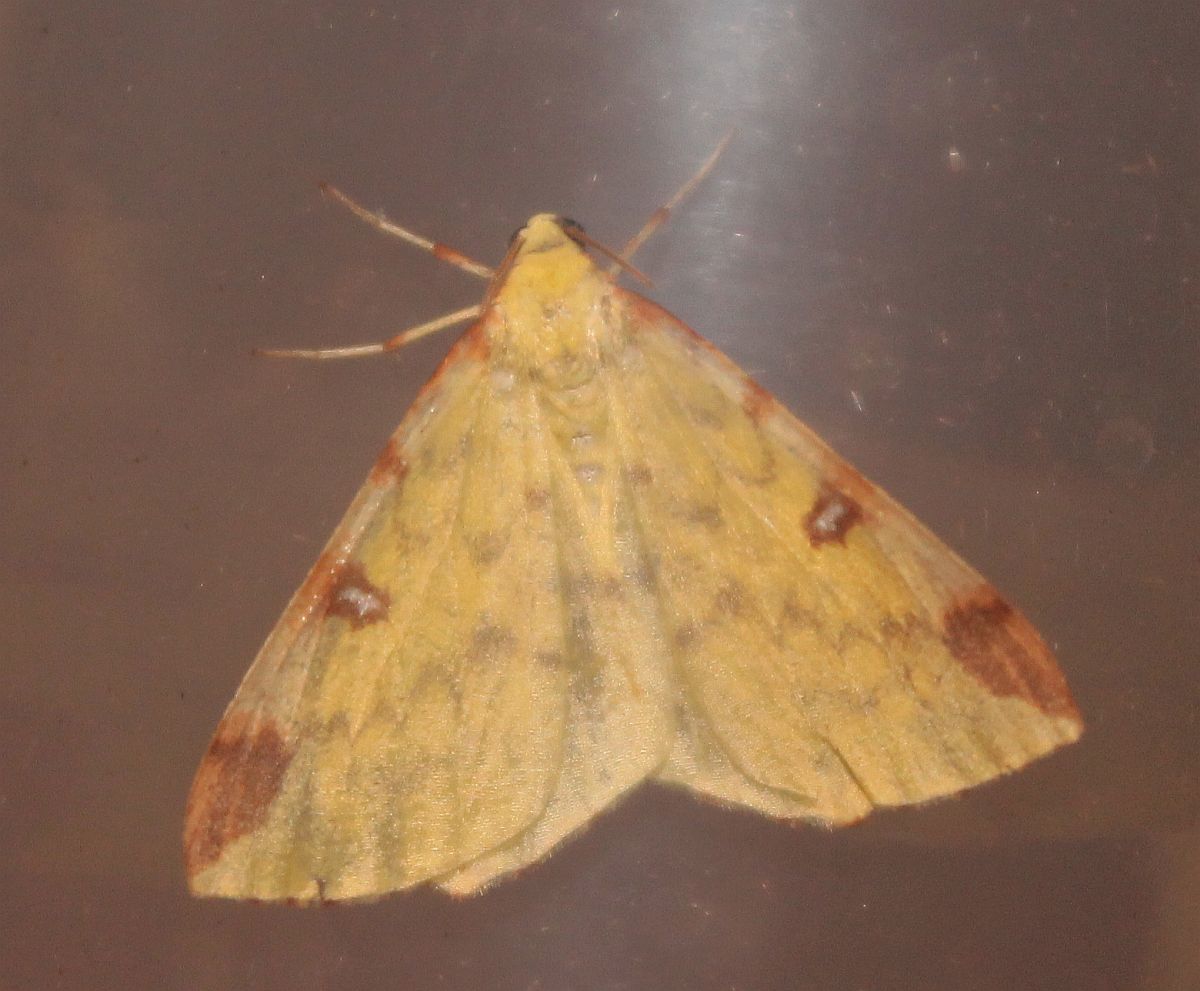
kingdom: Animalia
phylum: Arthropoda
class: Insecta
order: Lepidoptera
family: Geometridae
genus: Opisthograptis
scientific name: Opisthograptis luteolata
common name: Brimstone moth
